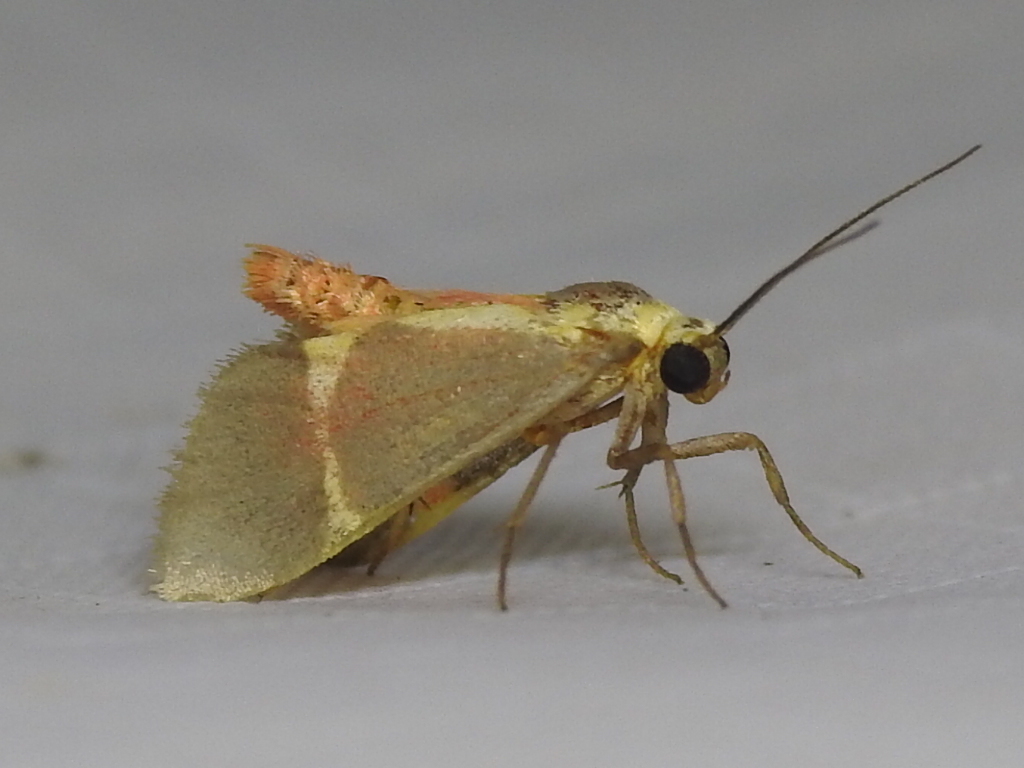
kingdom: Animalia
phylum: Arthropoda
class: Insecta
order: Lepidoptera
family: Erebidae
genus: Cisthene
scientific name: Cisthene tenuifascia
